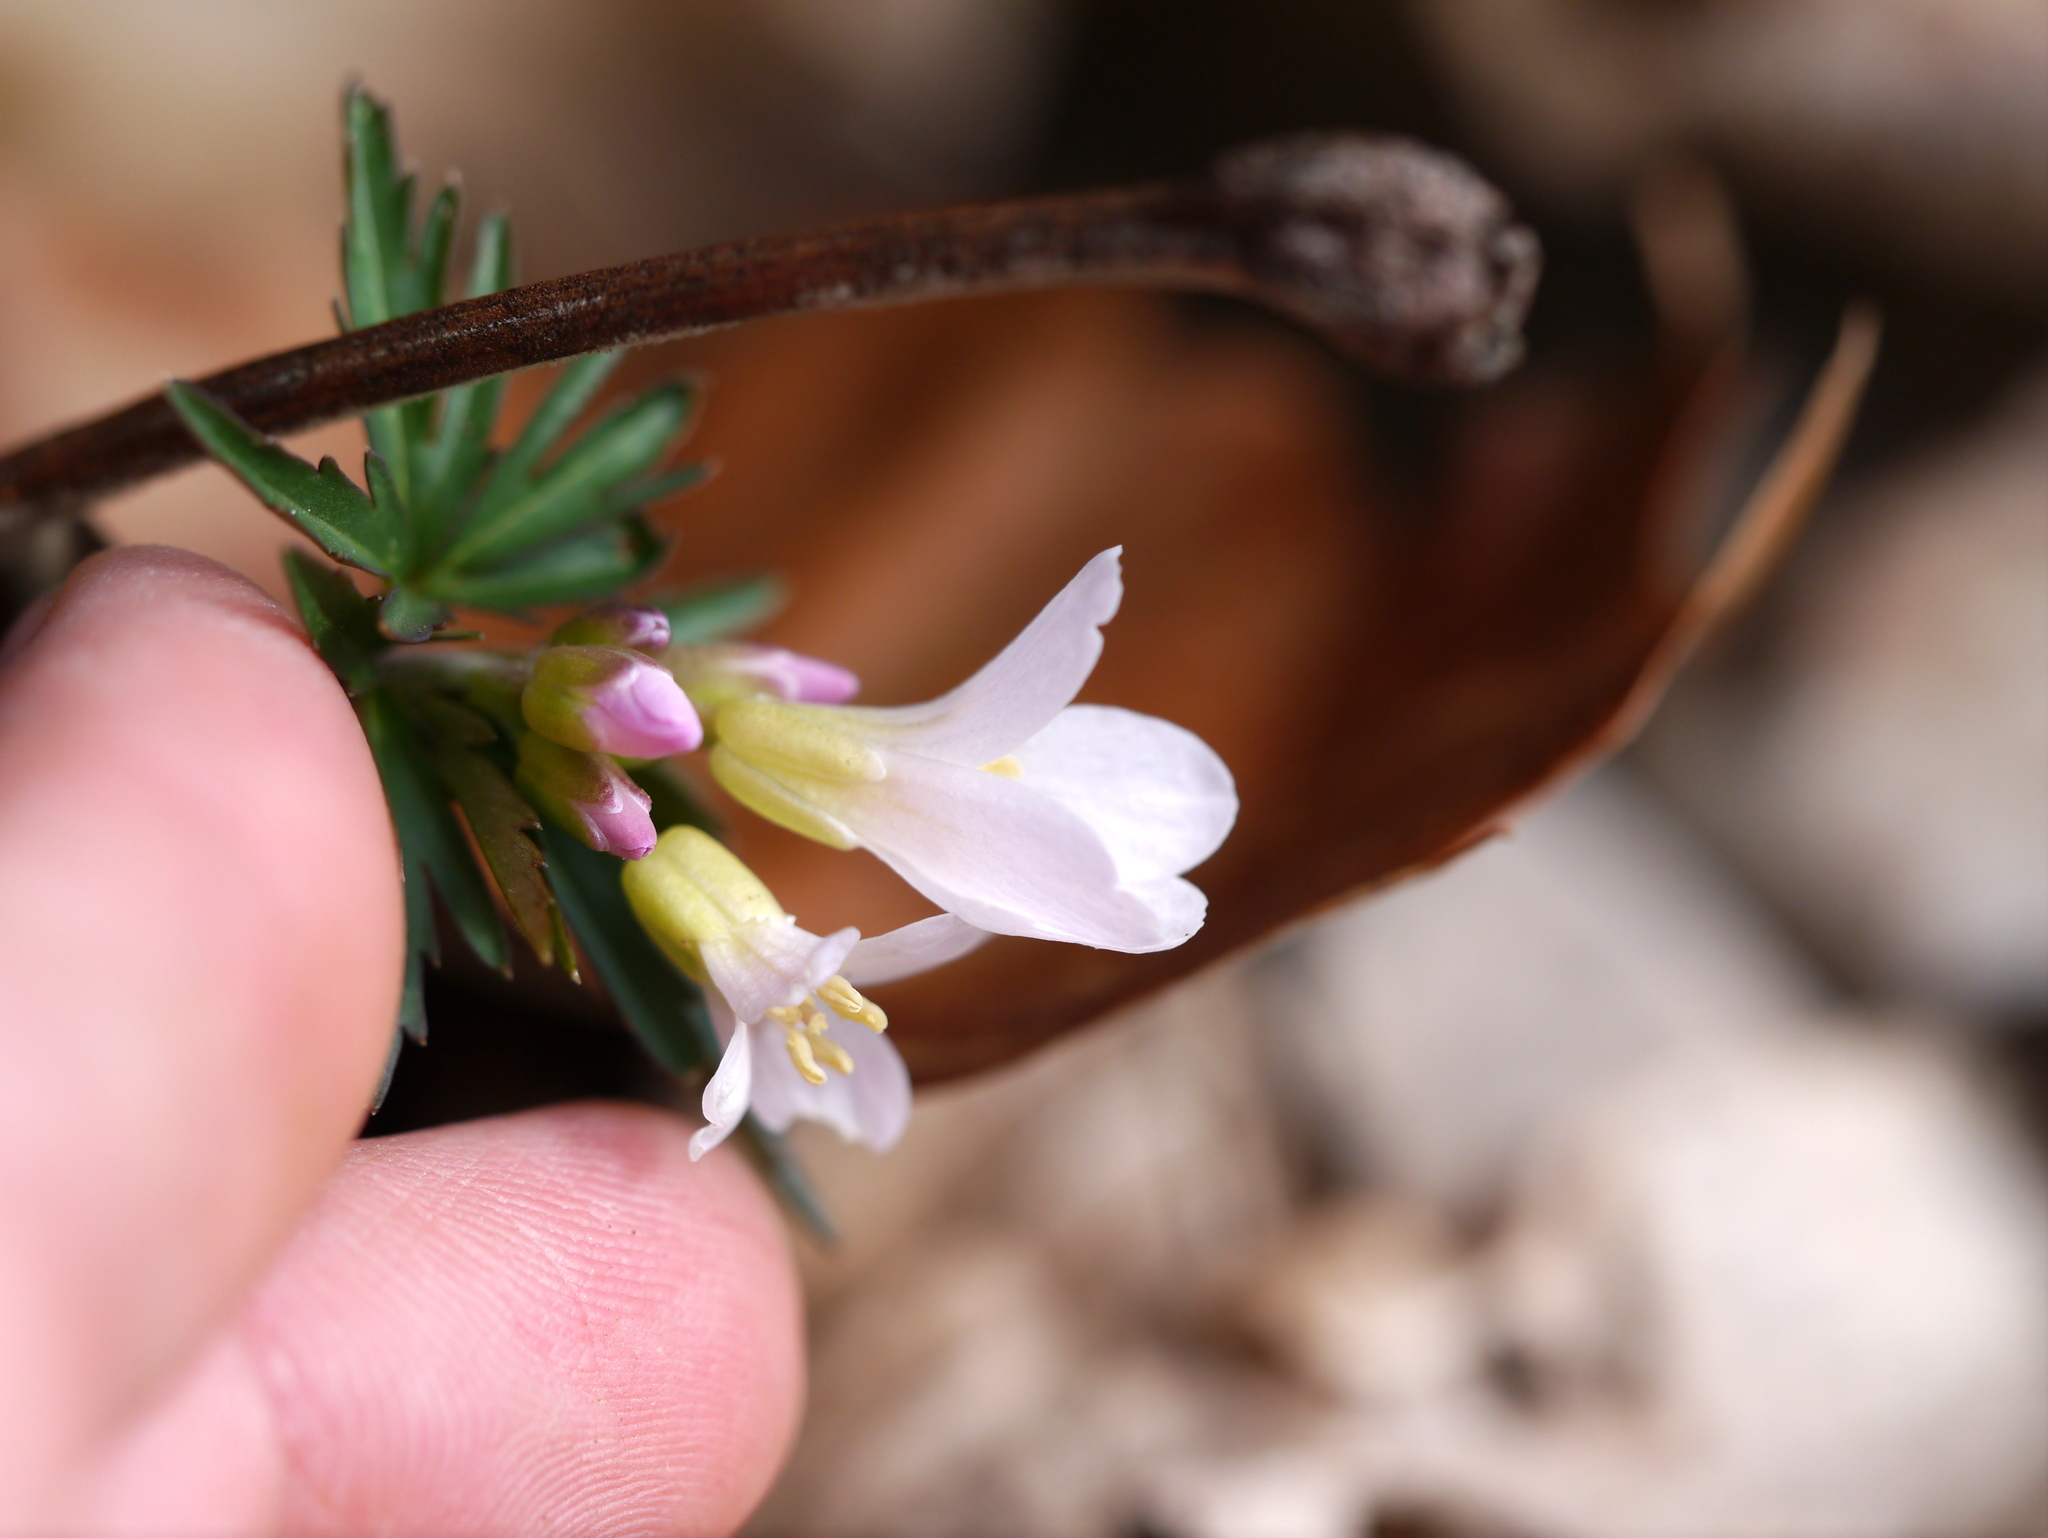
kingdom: Plantae
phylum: Tracheophyta
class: Magnoliopsida
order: Brassicales
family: Brassicaceae
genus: Cardamine
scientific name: Cardamine concatenata
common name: Cut-leaf toothcup
